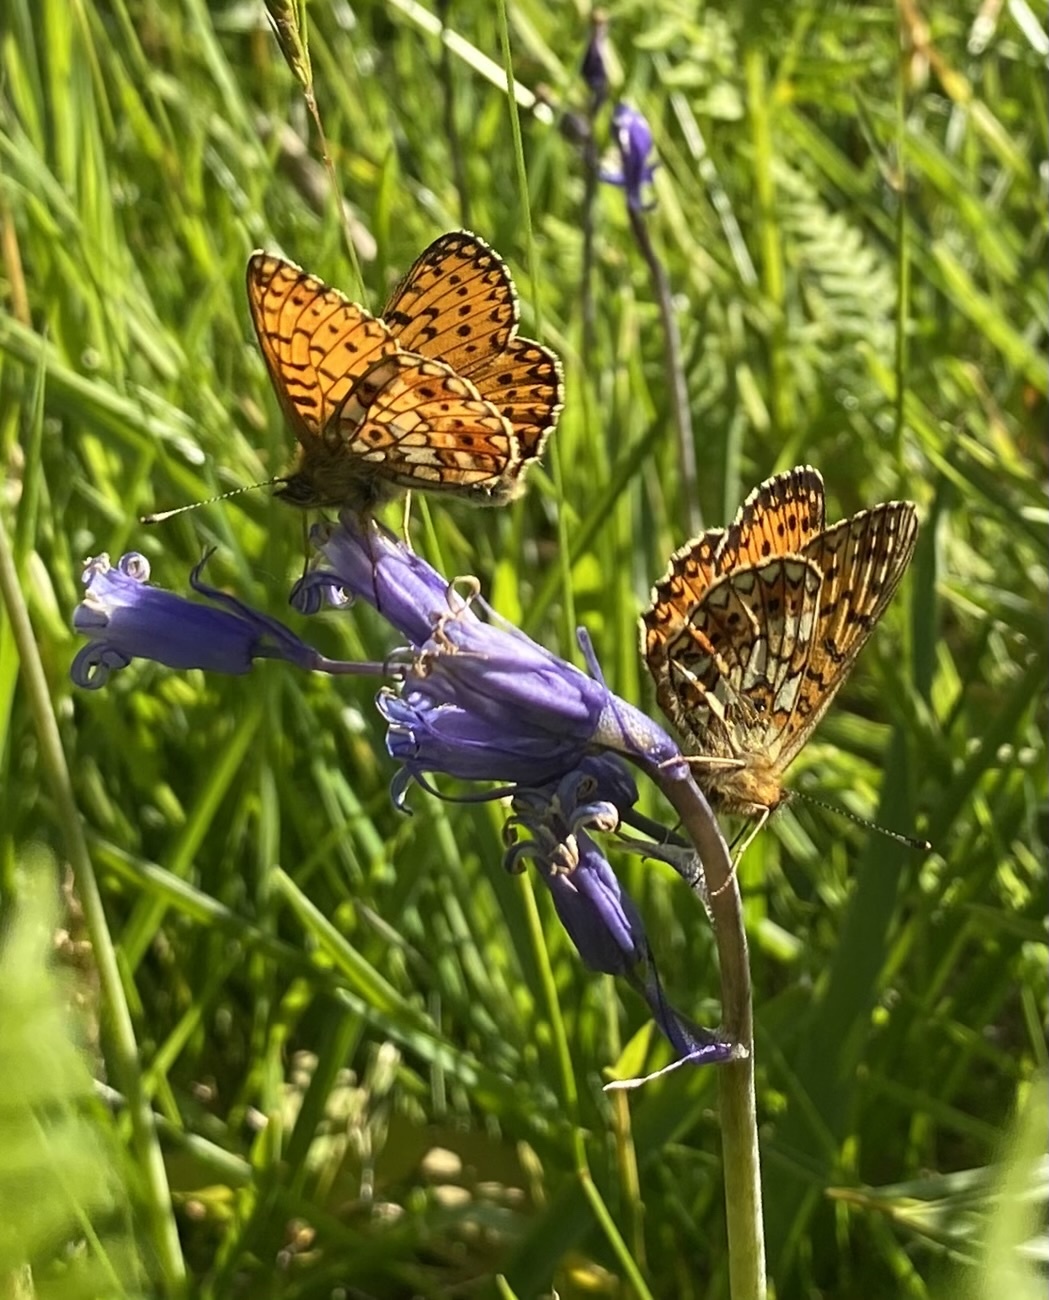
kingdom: Animalia
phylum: Arthropoda
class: Insecta
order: Lepidoptera
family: Nymphalidae
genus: Boloria
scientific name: Boloria selene
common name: Small pearl-bordered fritillary
